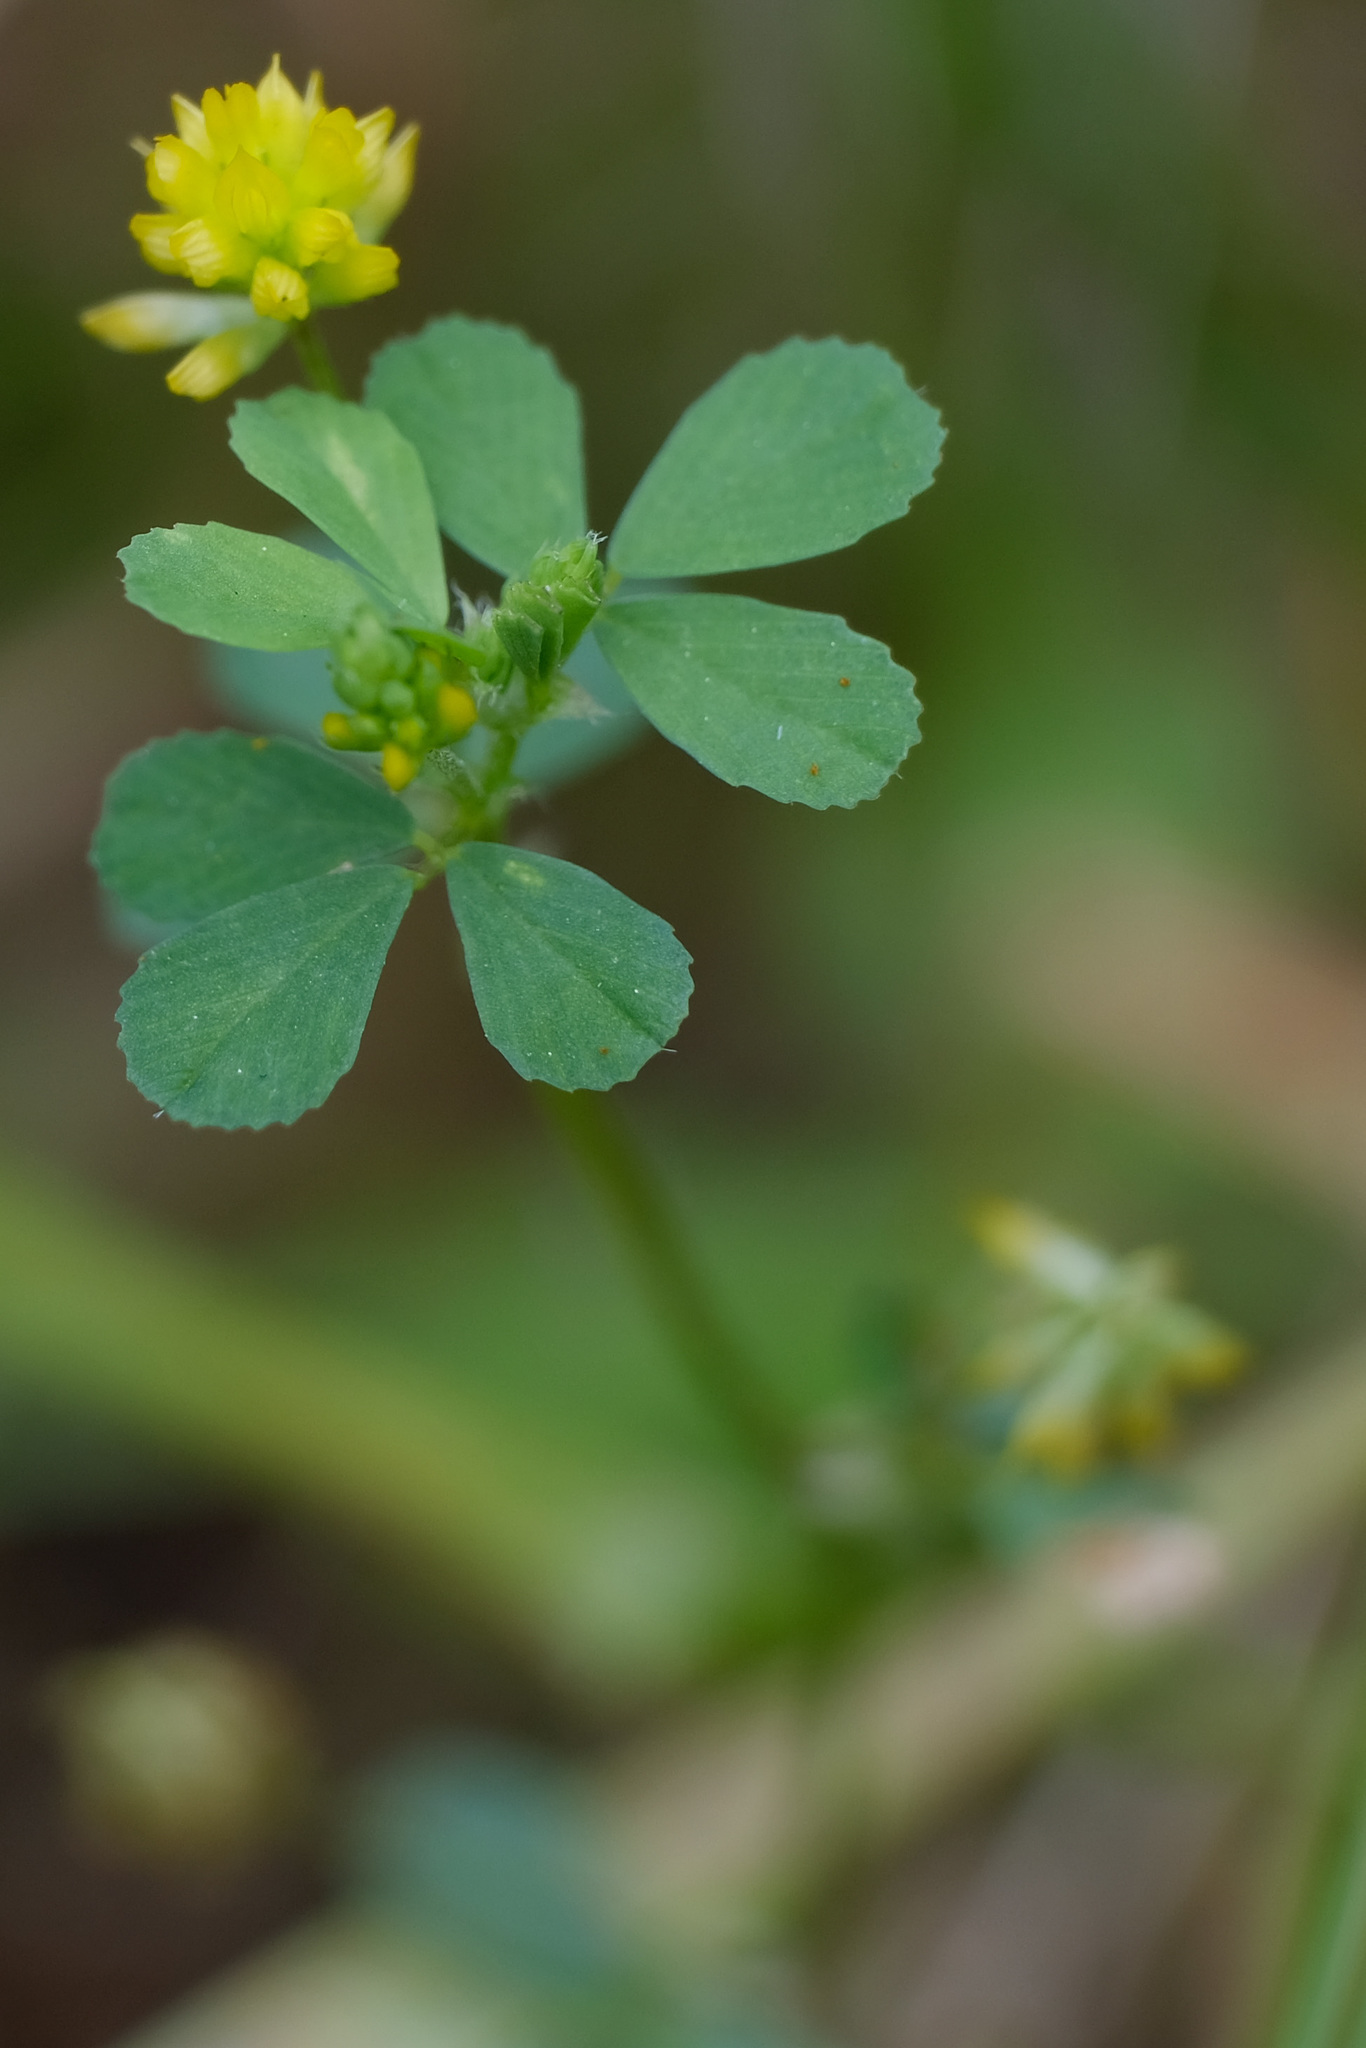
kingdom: Plantae
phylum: Tracheophyta
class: Magnoliopsida
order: Fabales
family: Fabaceae
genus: Trifolium
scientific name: Trifolium dubium
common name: Suckling clover
